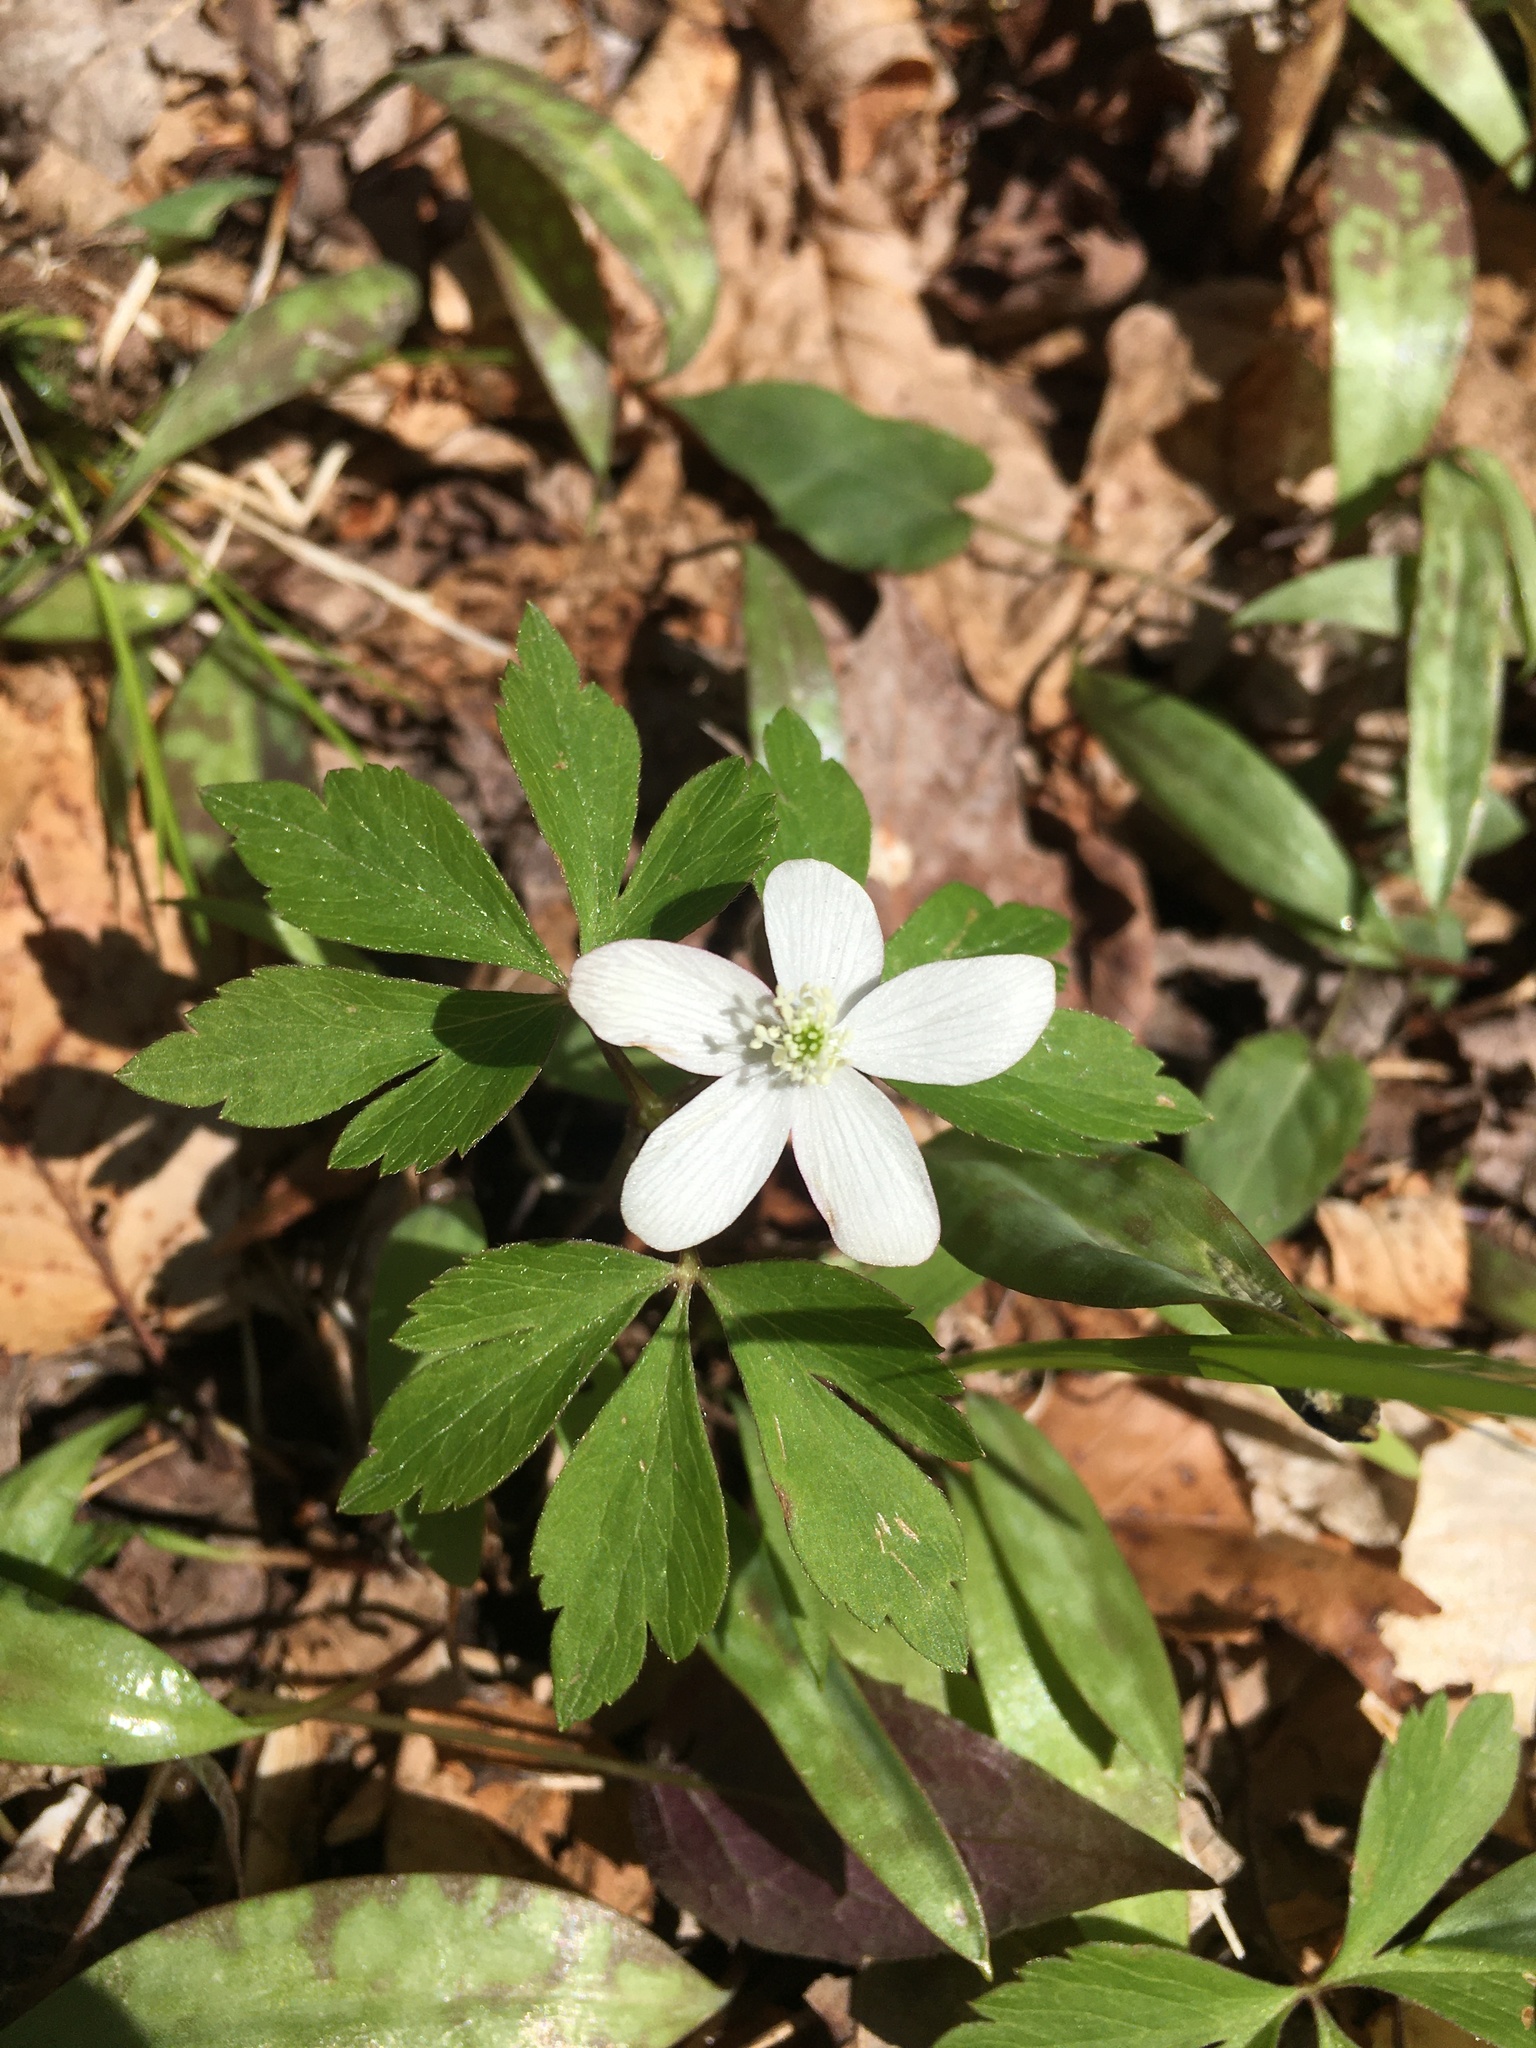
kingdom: Plantae
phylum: Tracheophyta
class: Magnoliopsida
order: Ranunculales
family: Ranunculaceae
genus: Anemone
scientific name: Anemone quinquefolia
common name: Wood anemone
